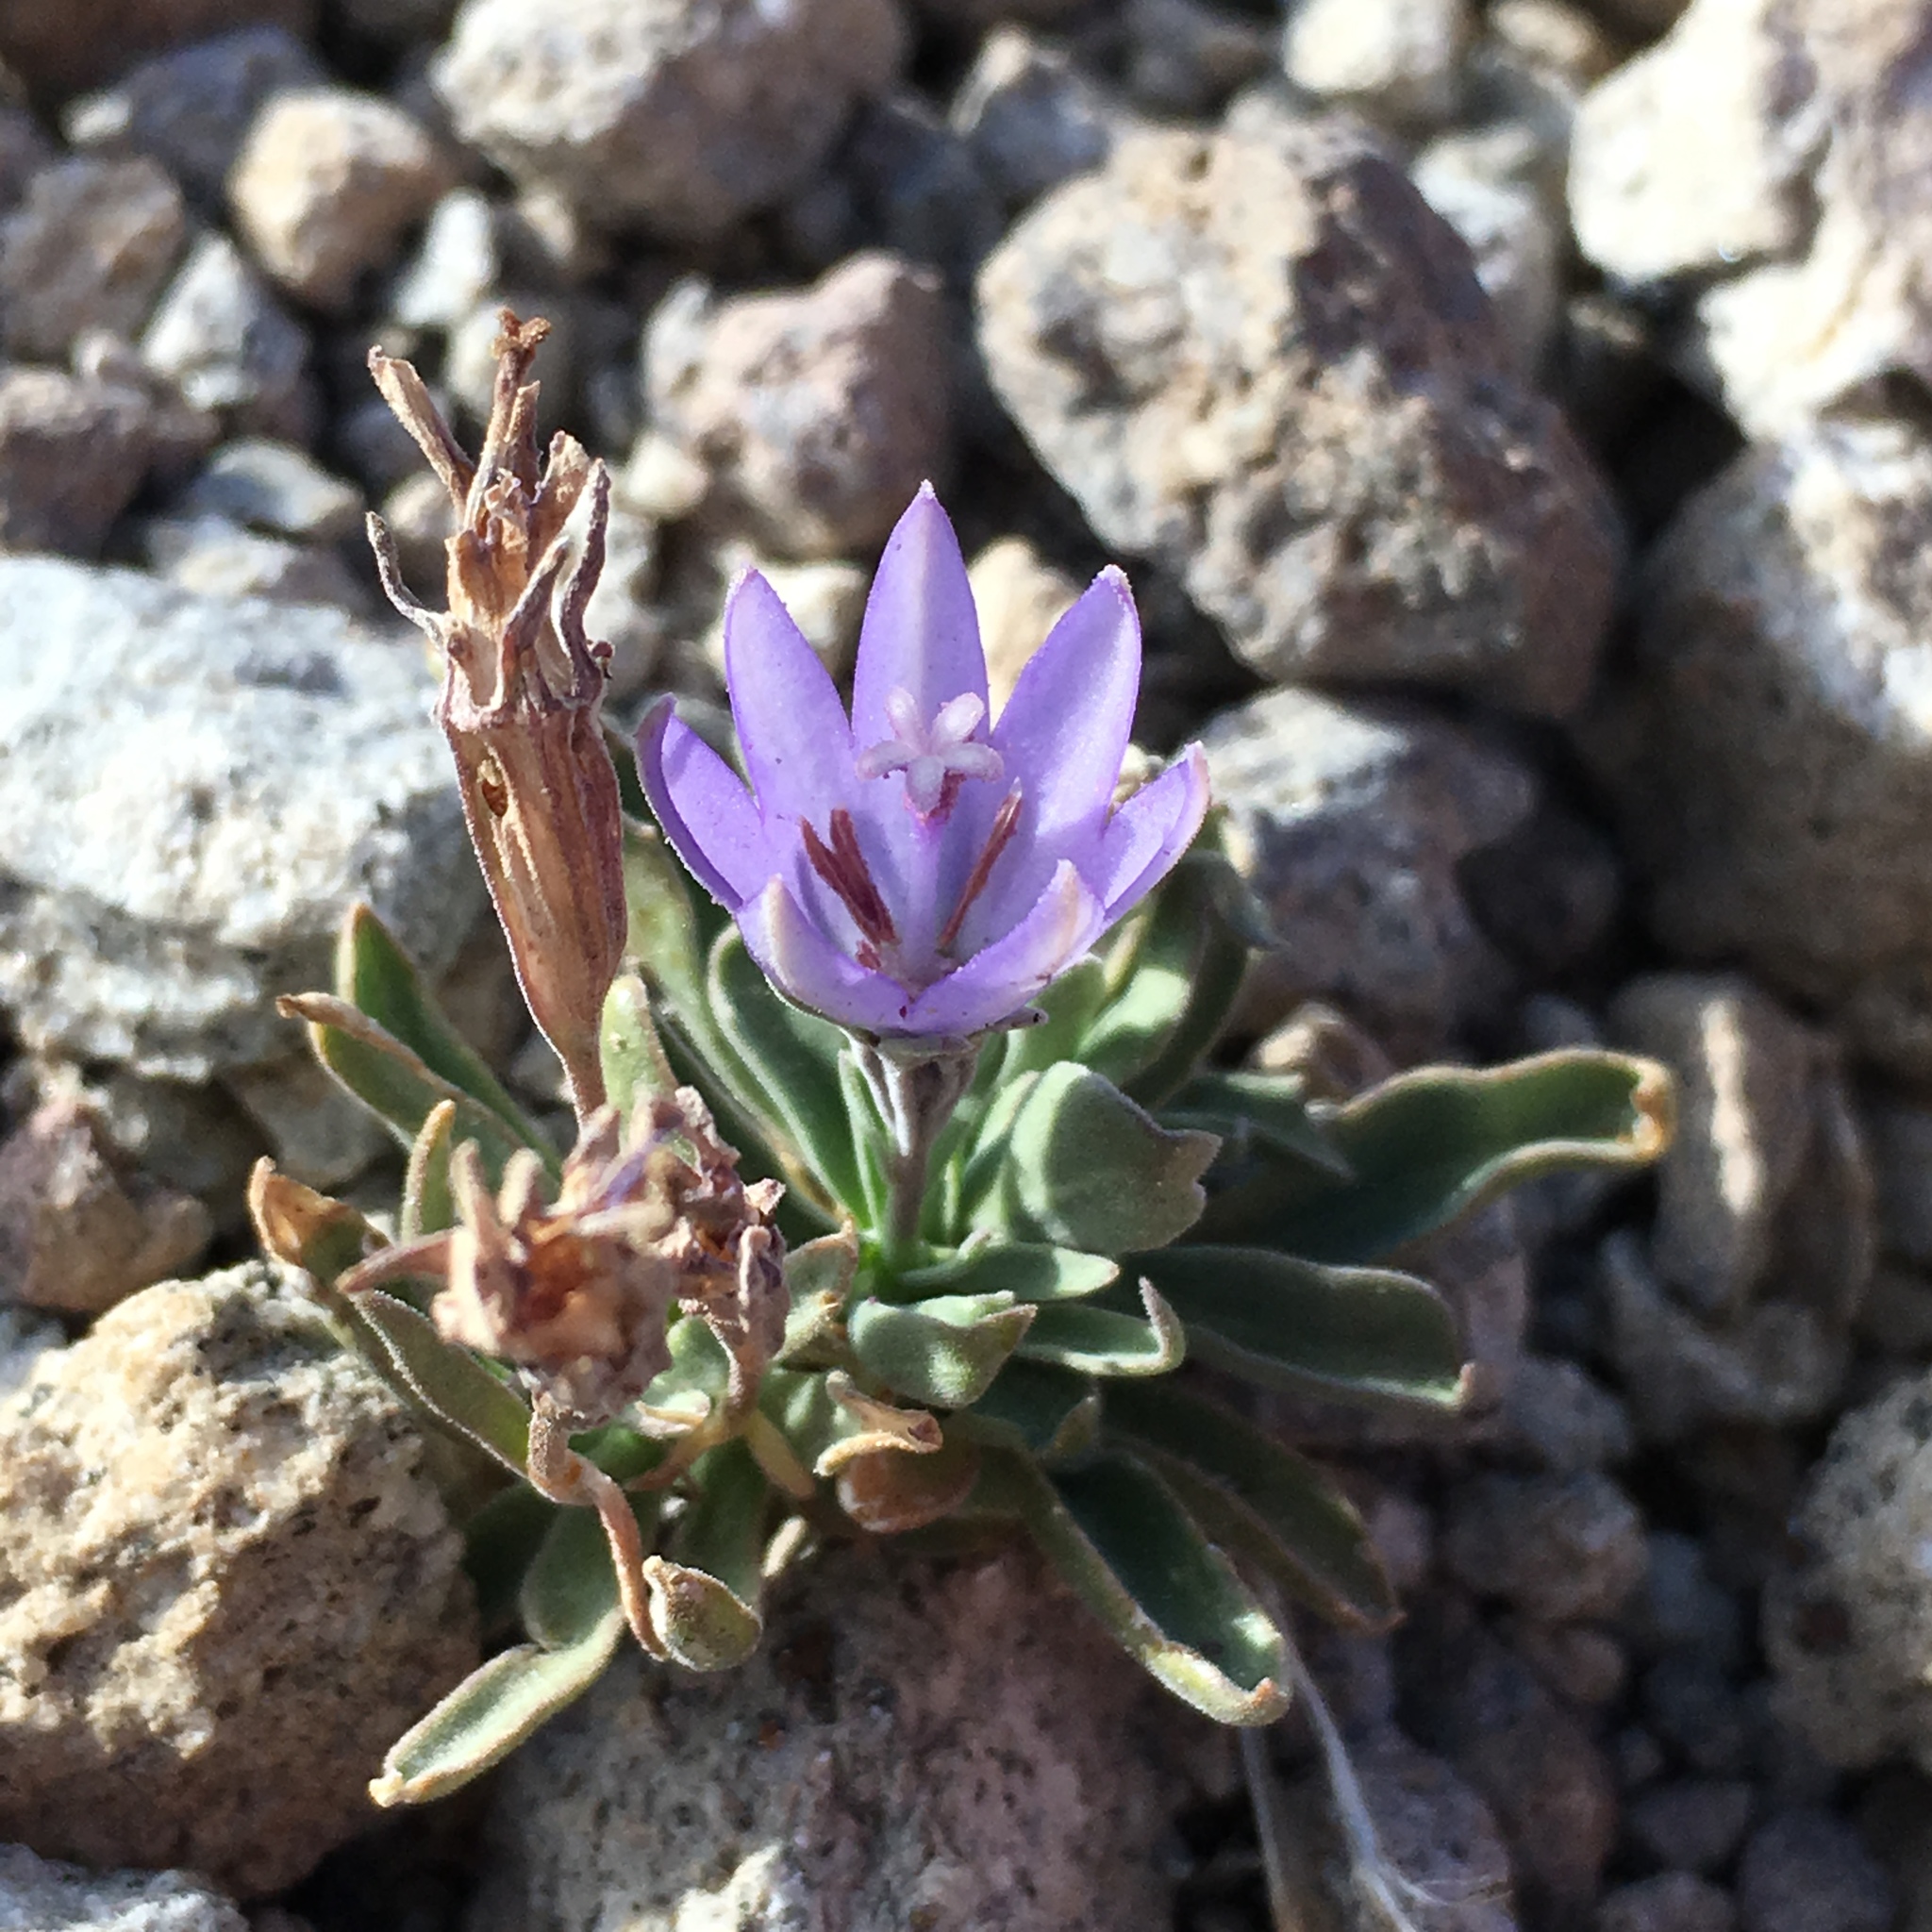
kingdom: Plantae
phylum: Tracheophyta
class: Magnoliopsida
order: Asterales
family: Campanulaceae
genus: Campanula
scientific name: Campanula scabrella
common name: Downy alpine bellflower
